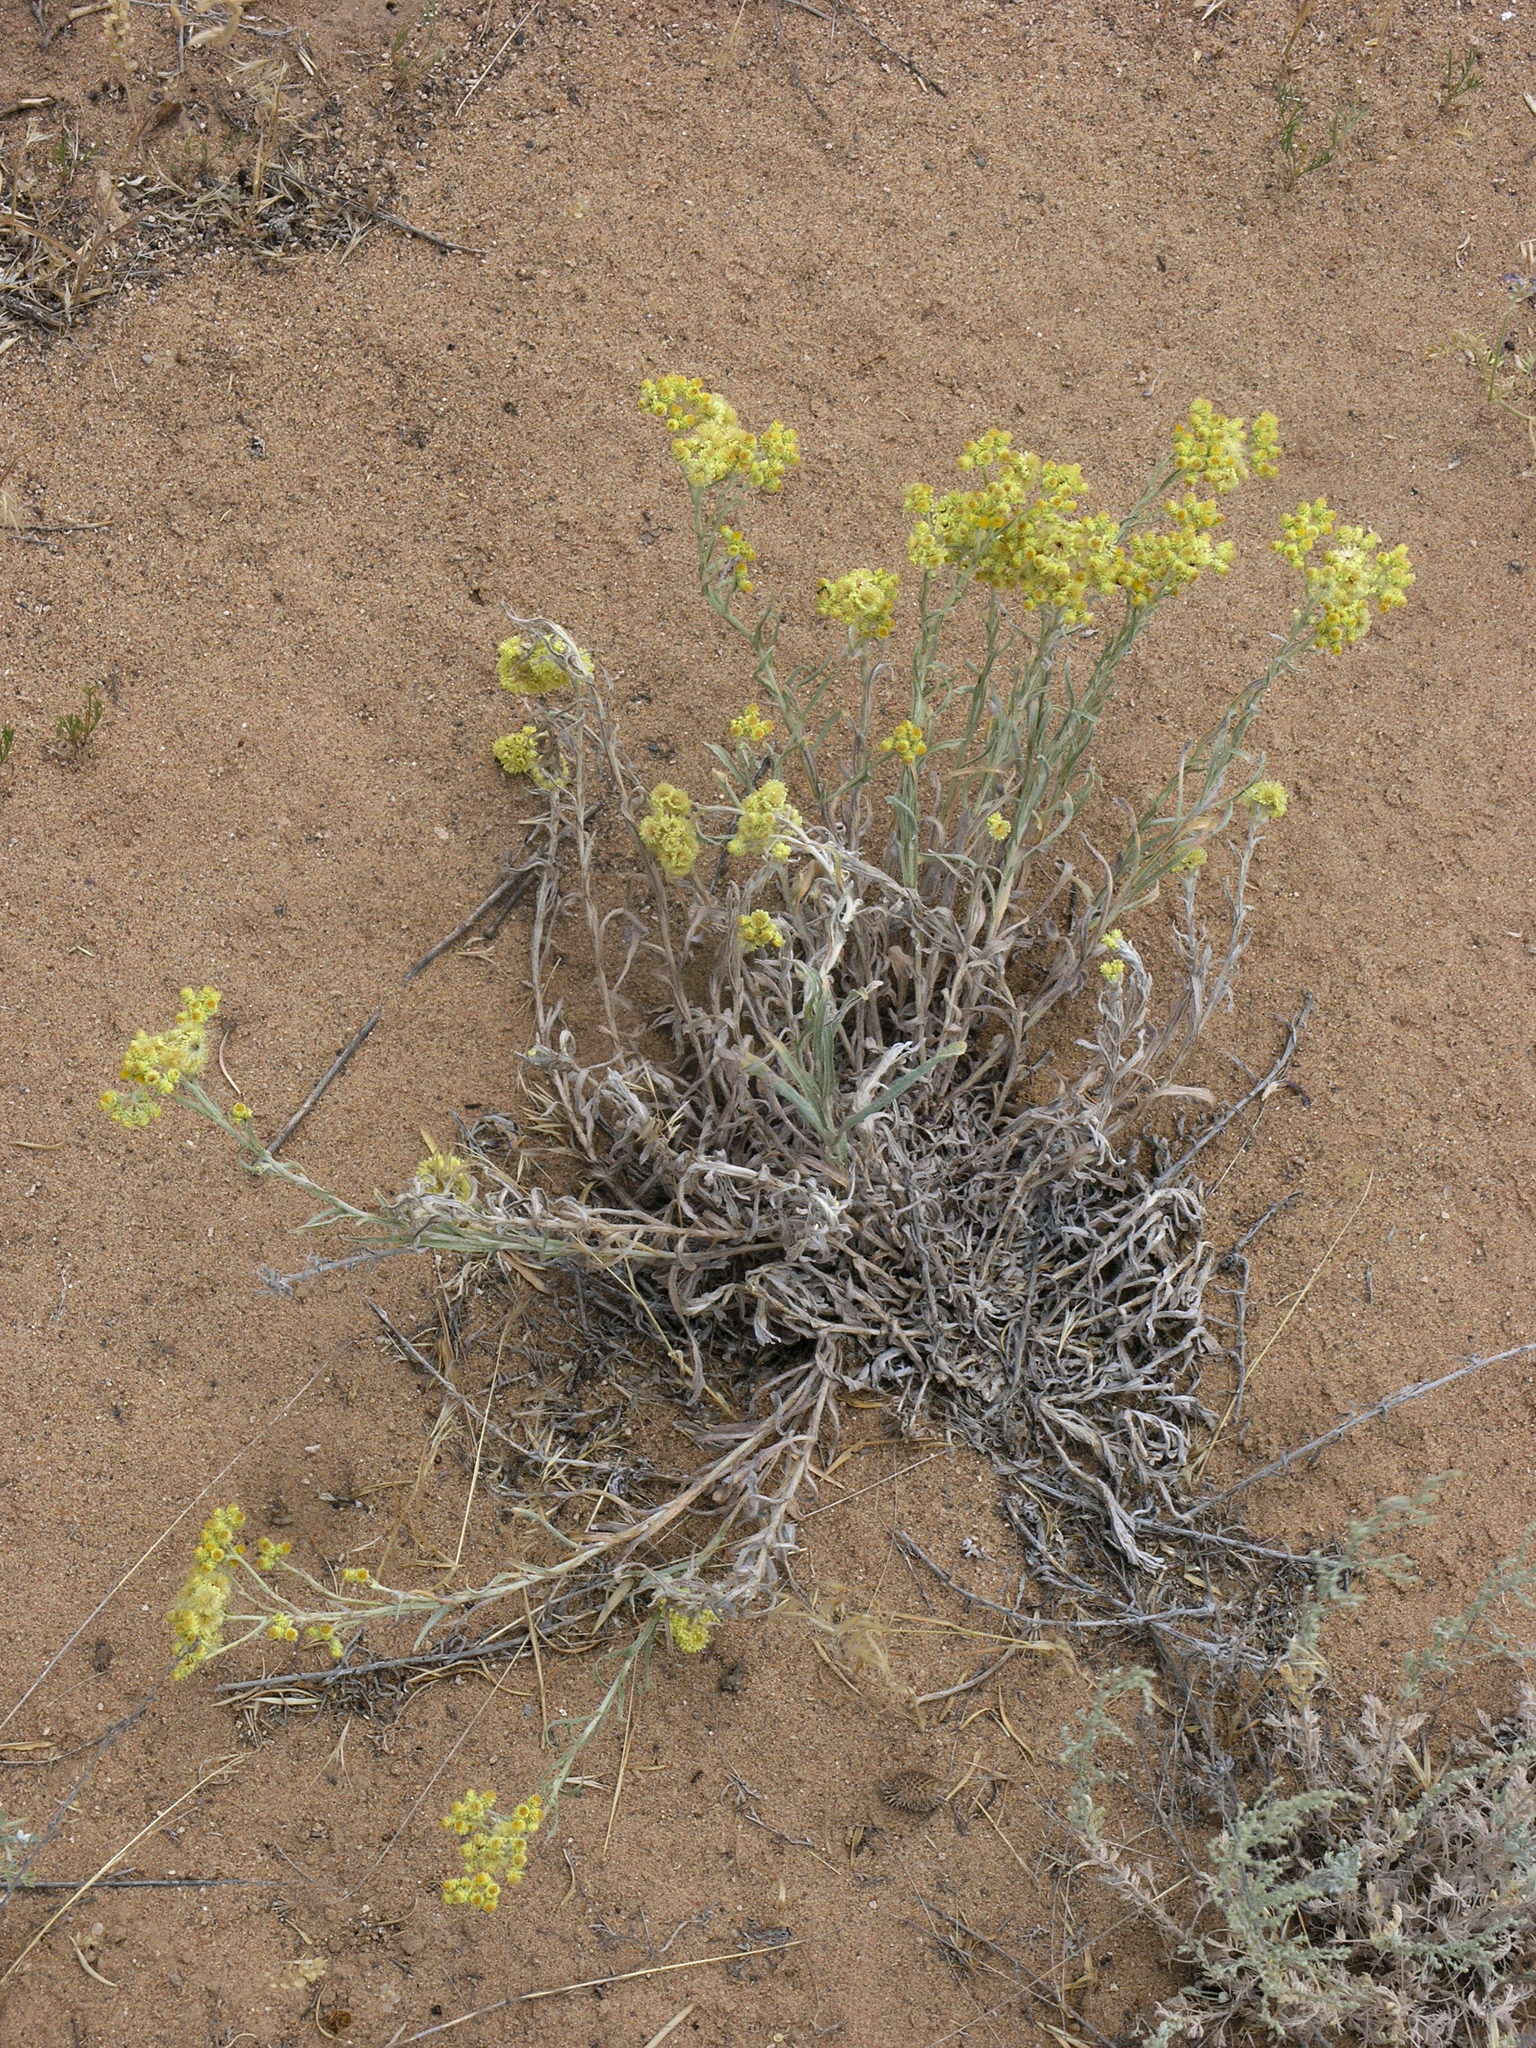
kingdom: Plantae
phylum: Tracheophyta
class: Magnoliopsida
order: Asterales
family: Asteraceae
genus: Helichrysum
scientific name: Helichrysum arenarium
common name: Strawflower
